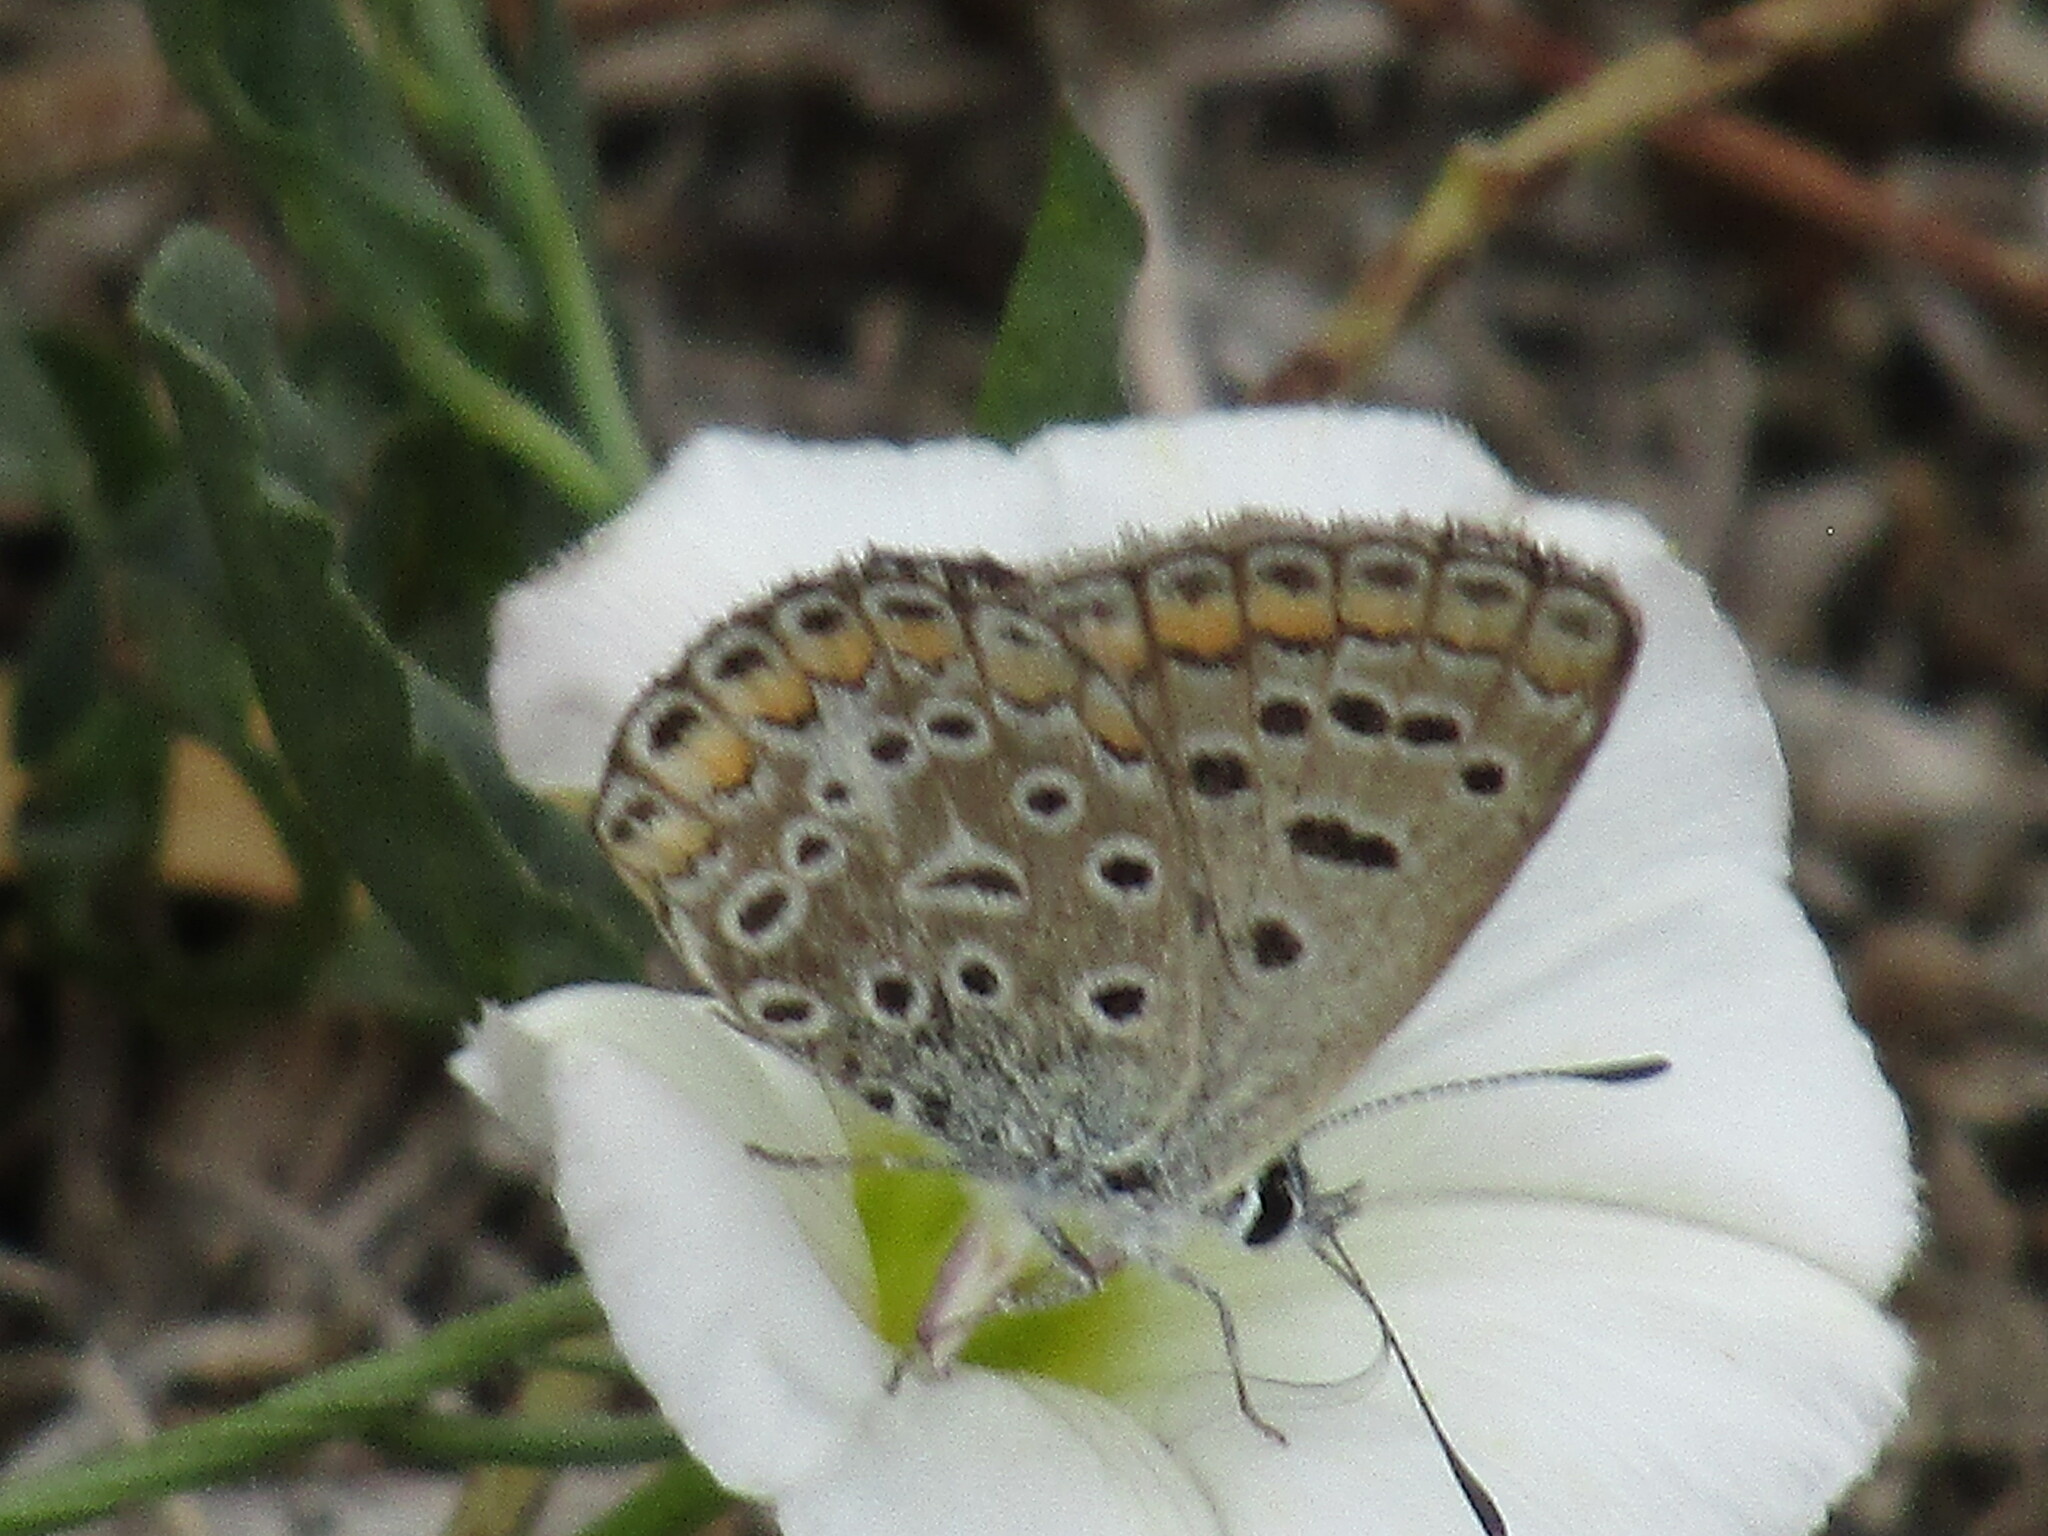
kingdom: Animalia
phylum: Arthropoda
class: Insecta
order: Lepidoptera
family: Lycaenidae
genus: Polyommatus
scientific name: Polyommatus icarus
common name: Common blue
